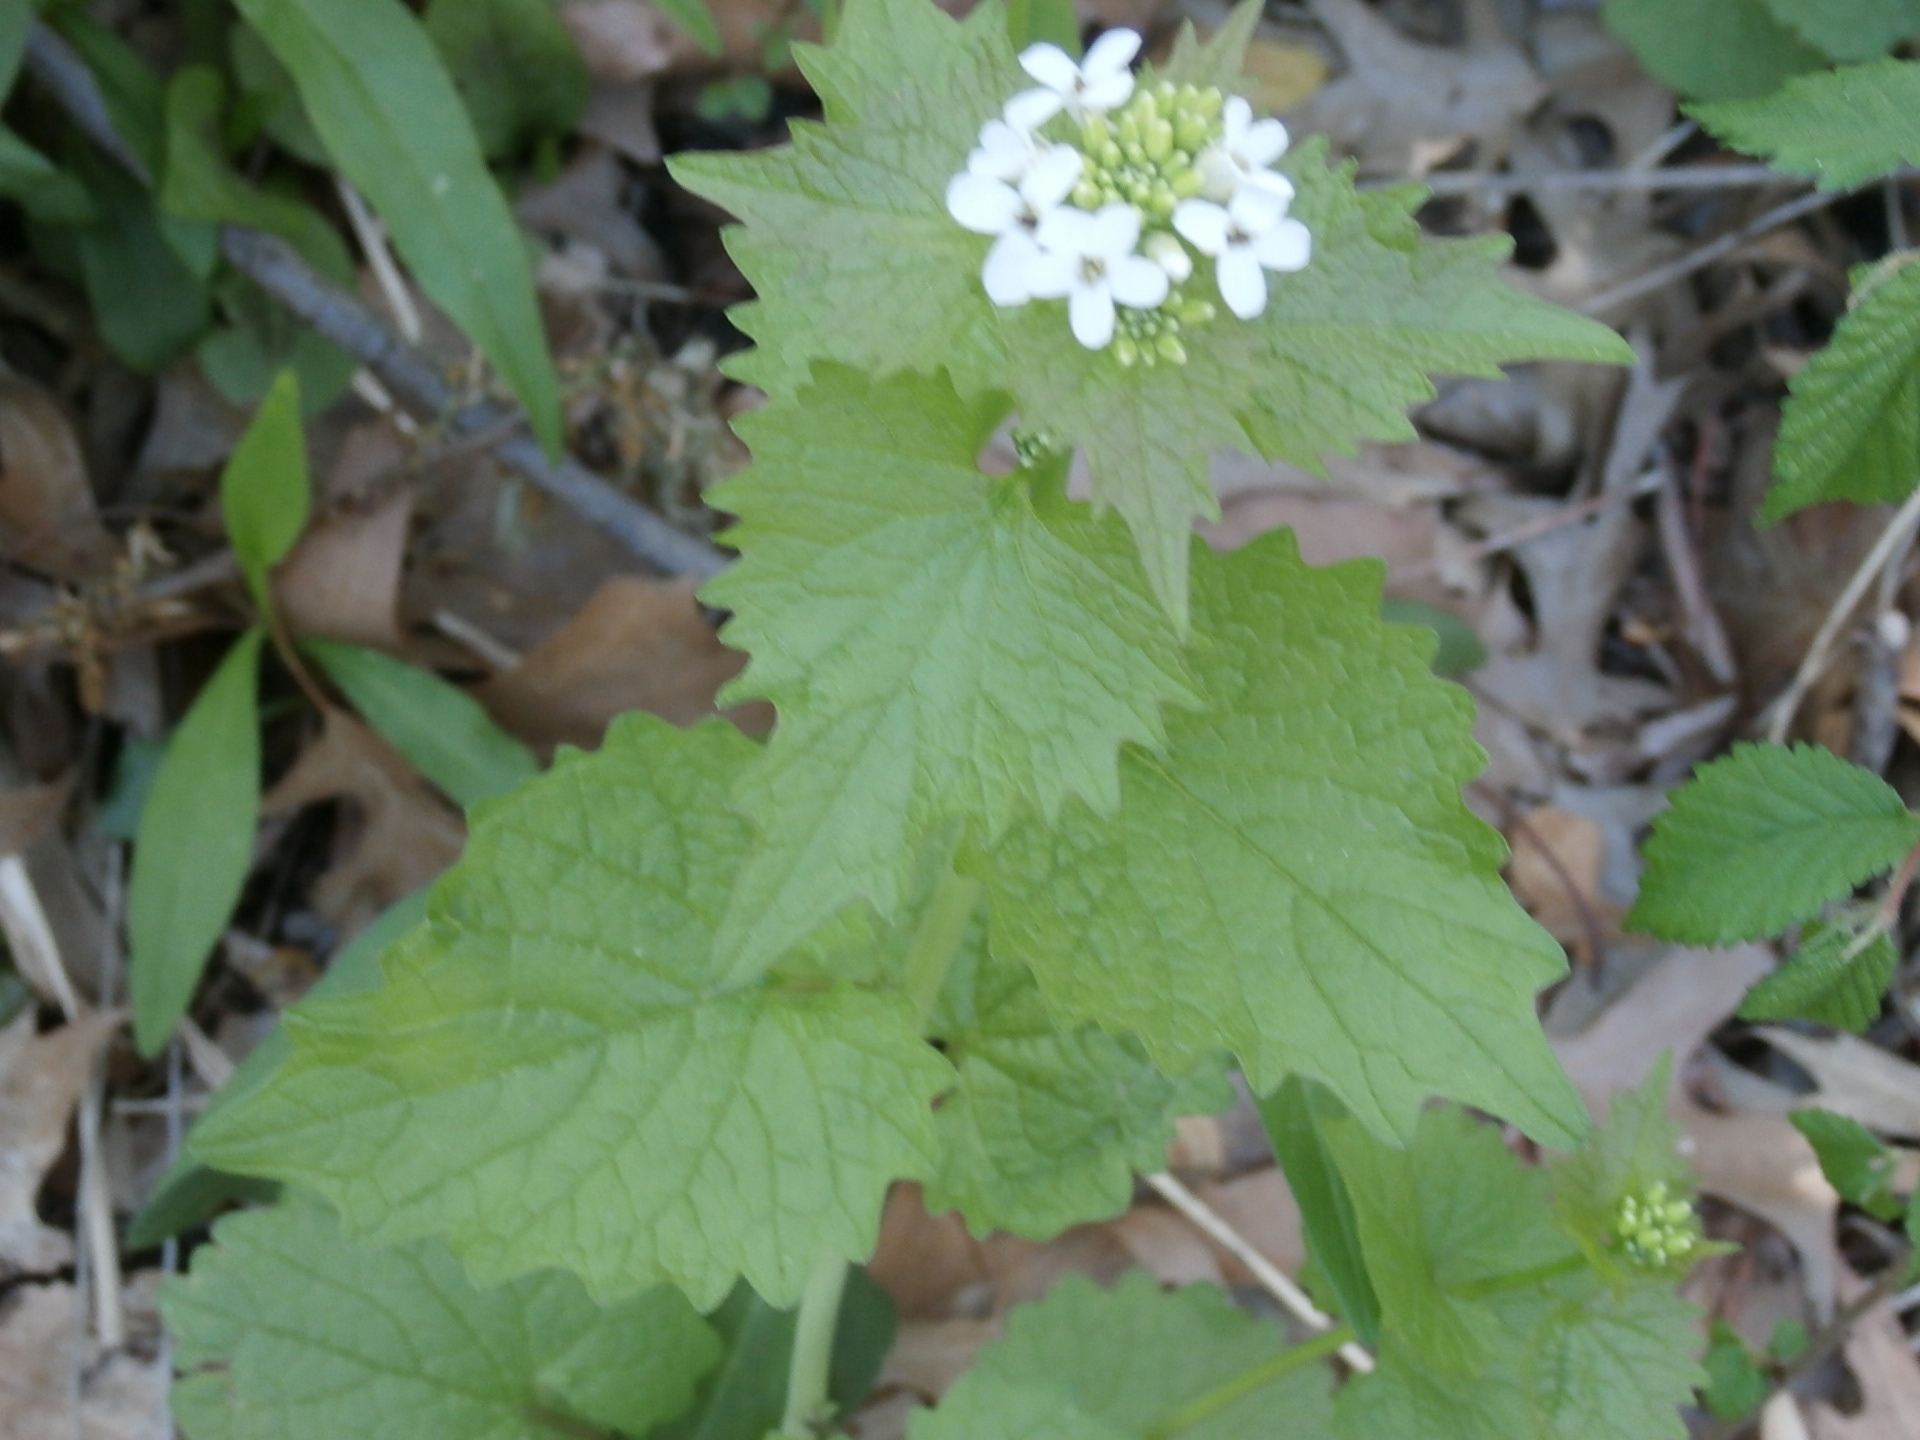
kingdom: Plantae
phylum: Tracheophyta
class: Magnoliopsida
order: Brassicales
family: Brassicaceae
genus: Alliaria
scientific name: Alliaria petiolata
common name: Garlic mustard
